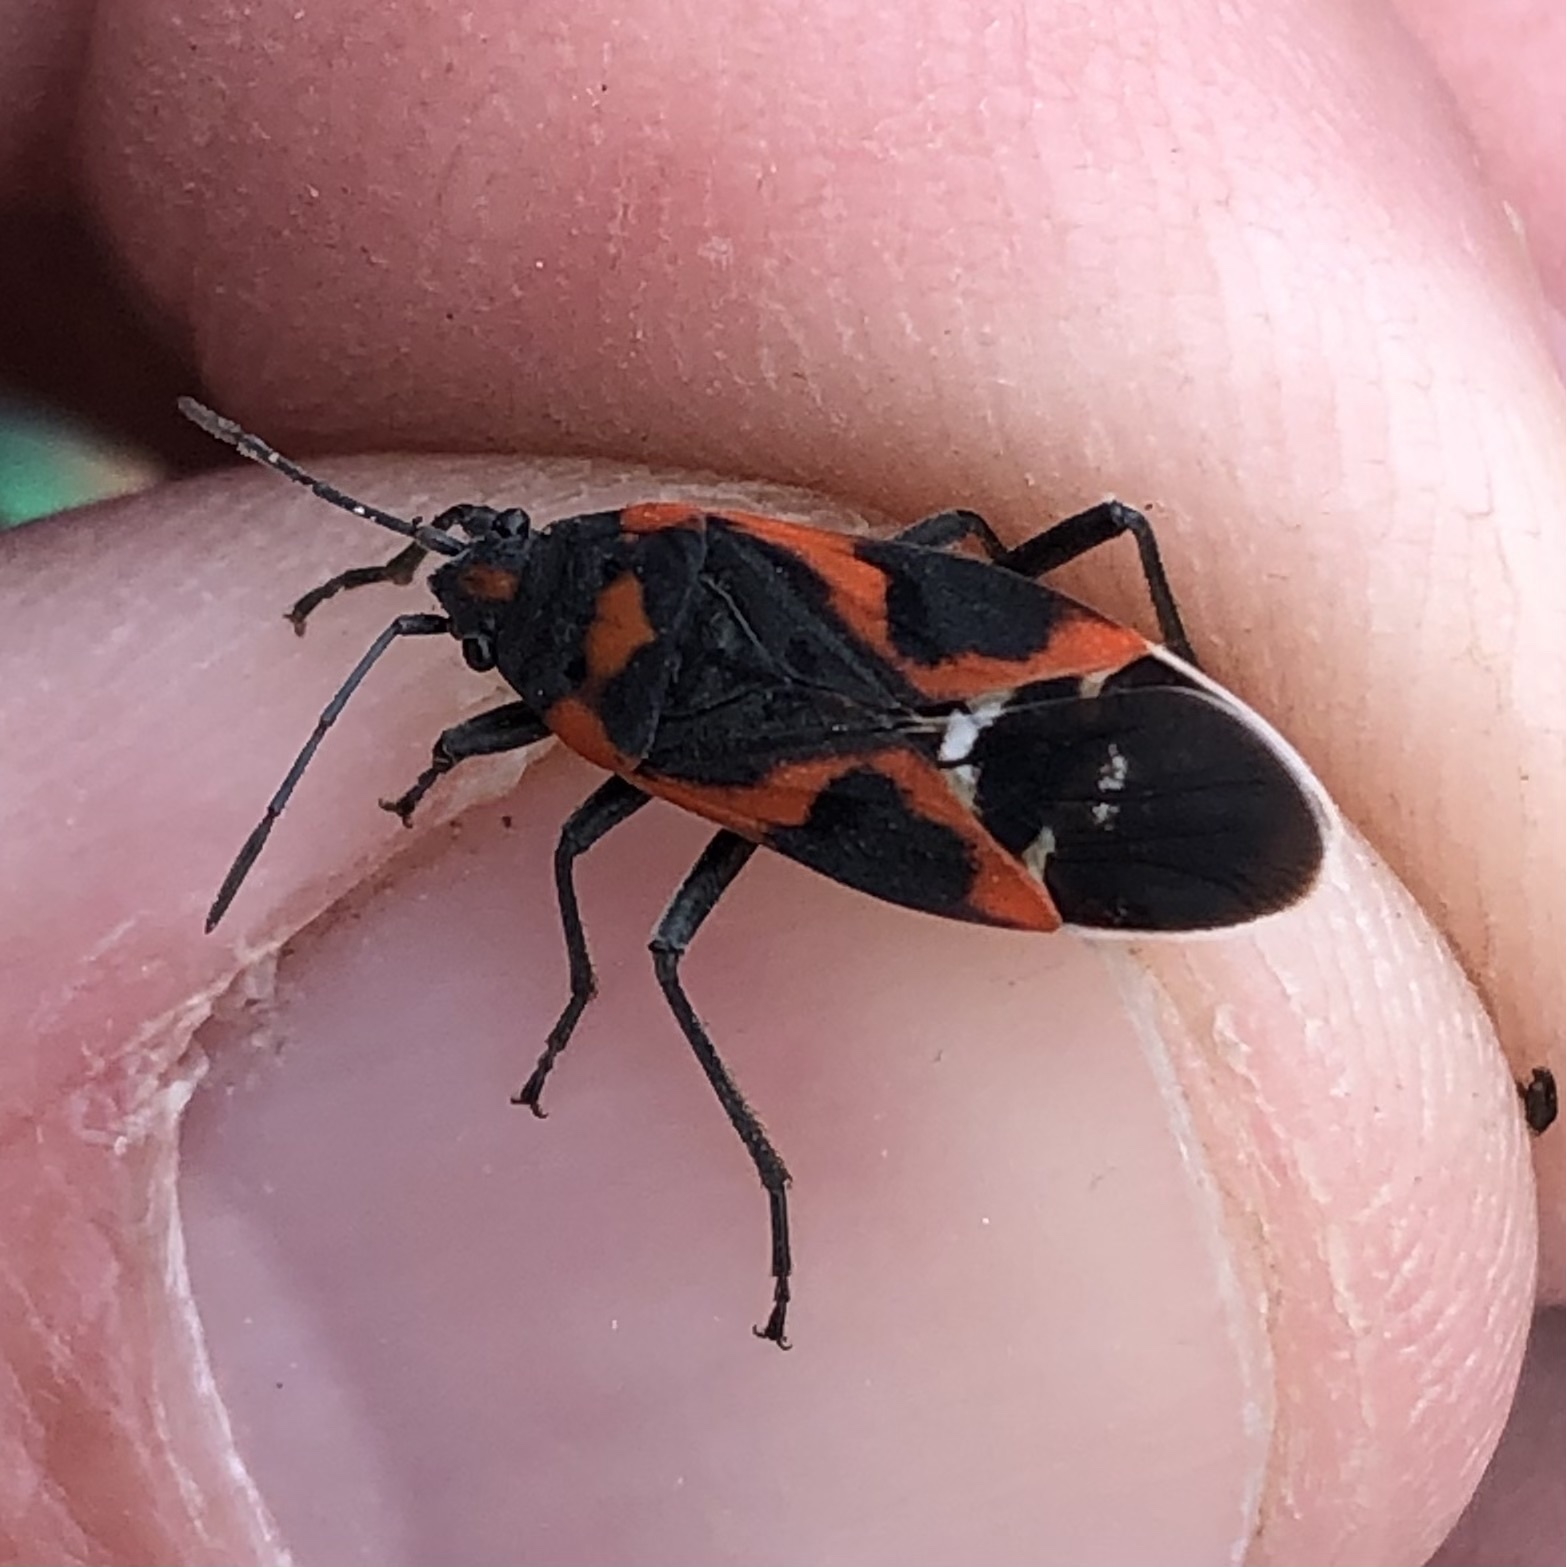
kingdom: Animalia
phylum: Arthropoda
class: Insecta
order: Hemiptera
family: Lygaeidae
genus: Lygaeus
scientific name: Lygaeus kalmii
